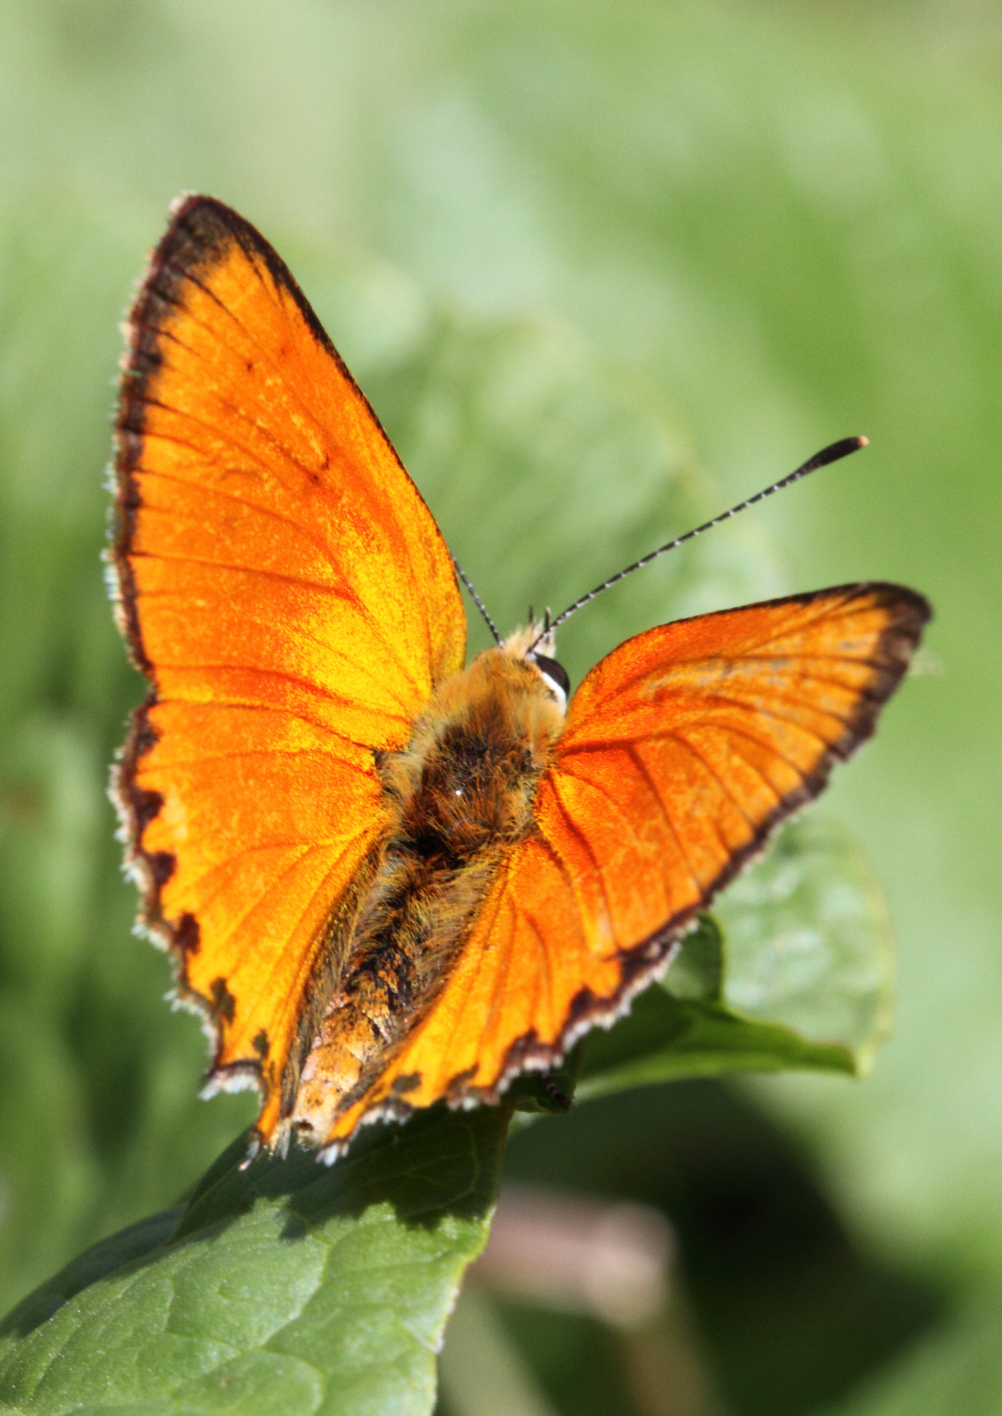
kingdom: Animalia
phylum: Arthropoda
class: Insecta
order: Lepidoptera
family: Lycaenidae
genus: Lycaena
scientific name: Lycaena virgaureae
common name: Scarce copper
